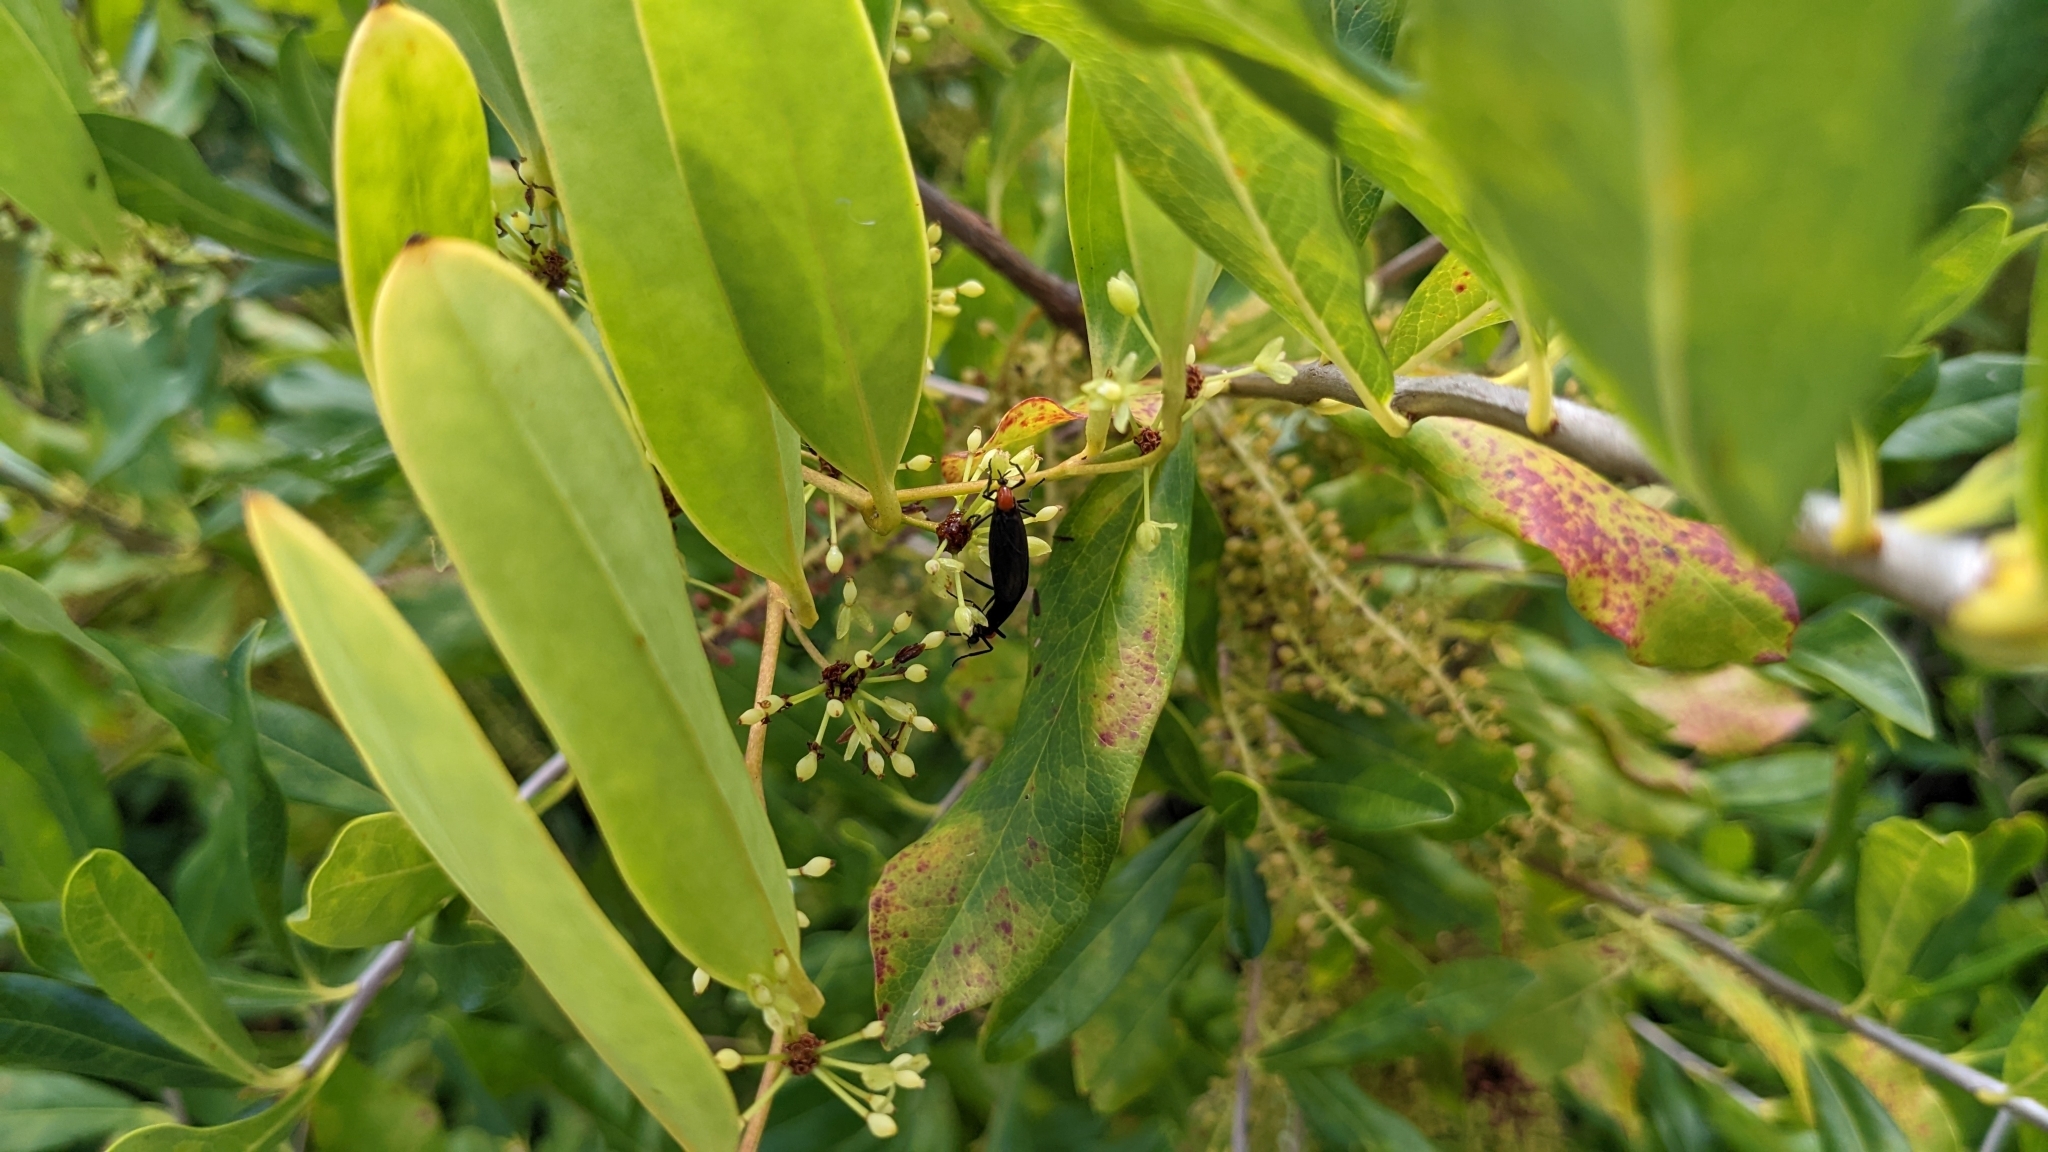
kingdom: Animalia
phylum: Arthropoda
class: Insecta
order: Diptera
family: Bibionidae
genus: Plecia
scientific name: Plecia nearctica
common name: March fly
